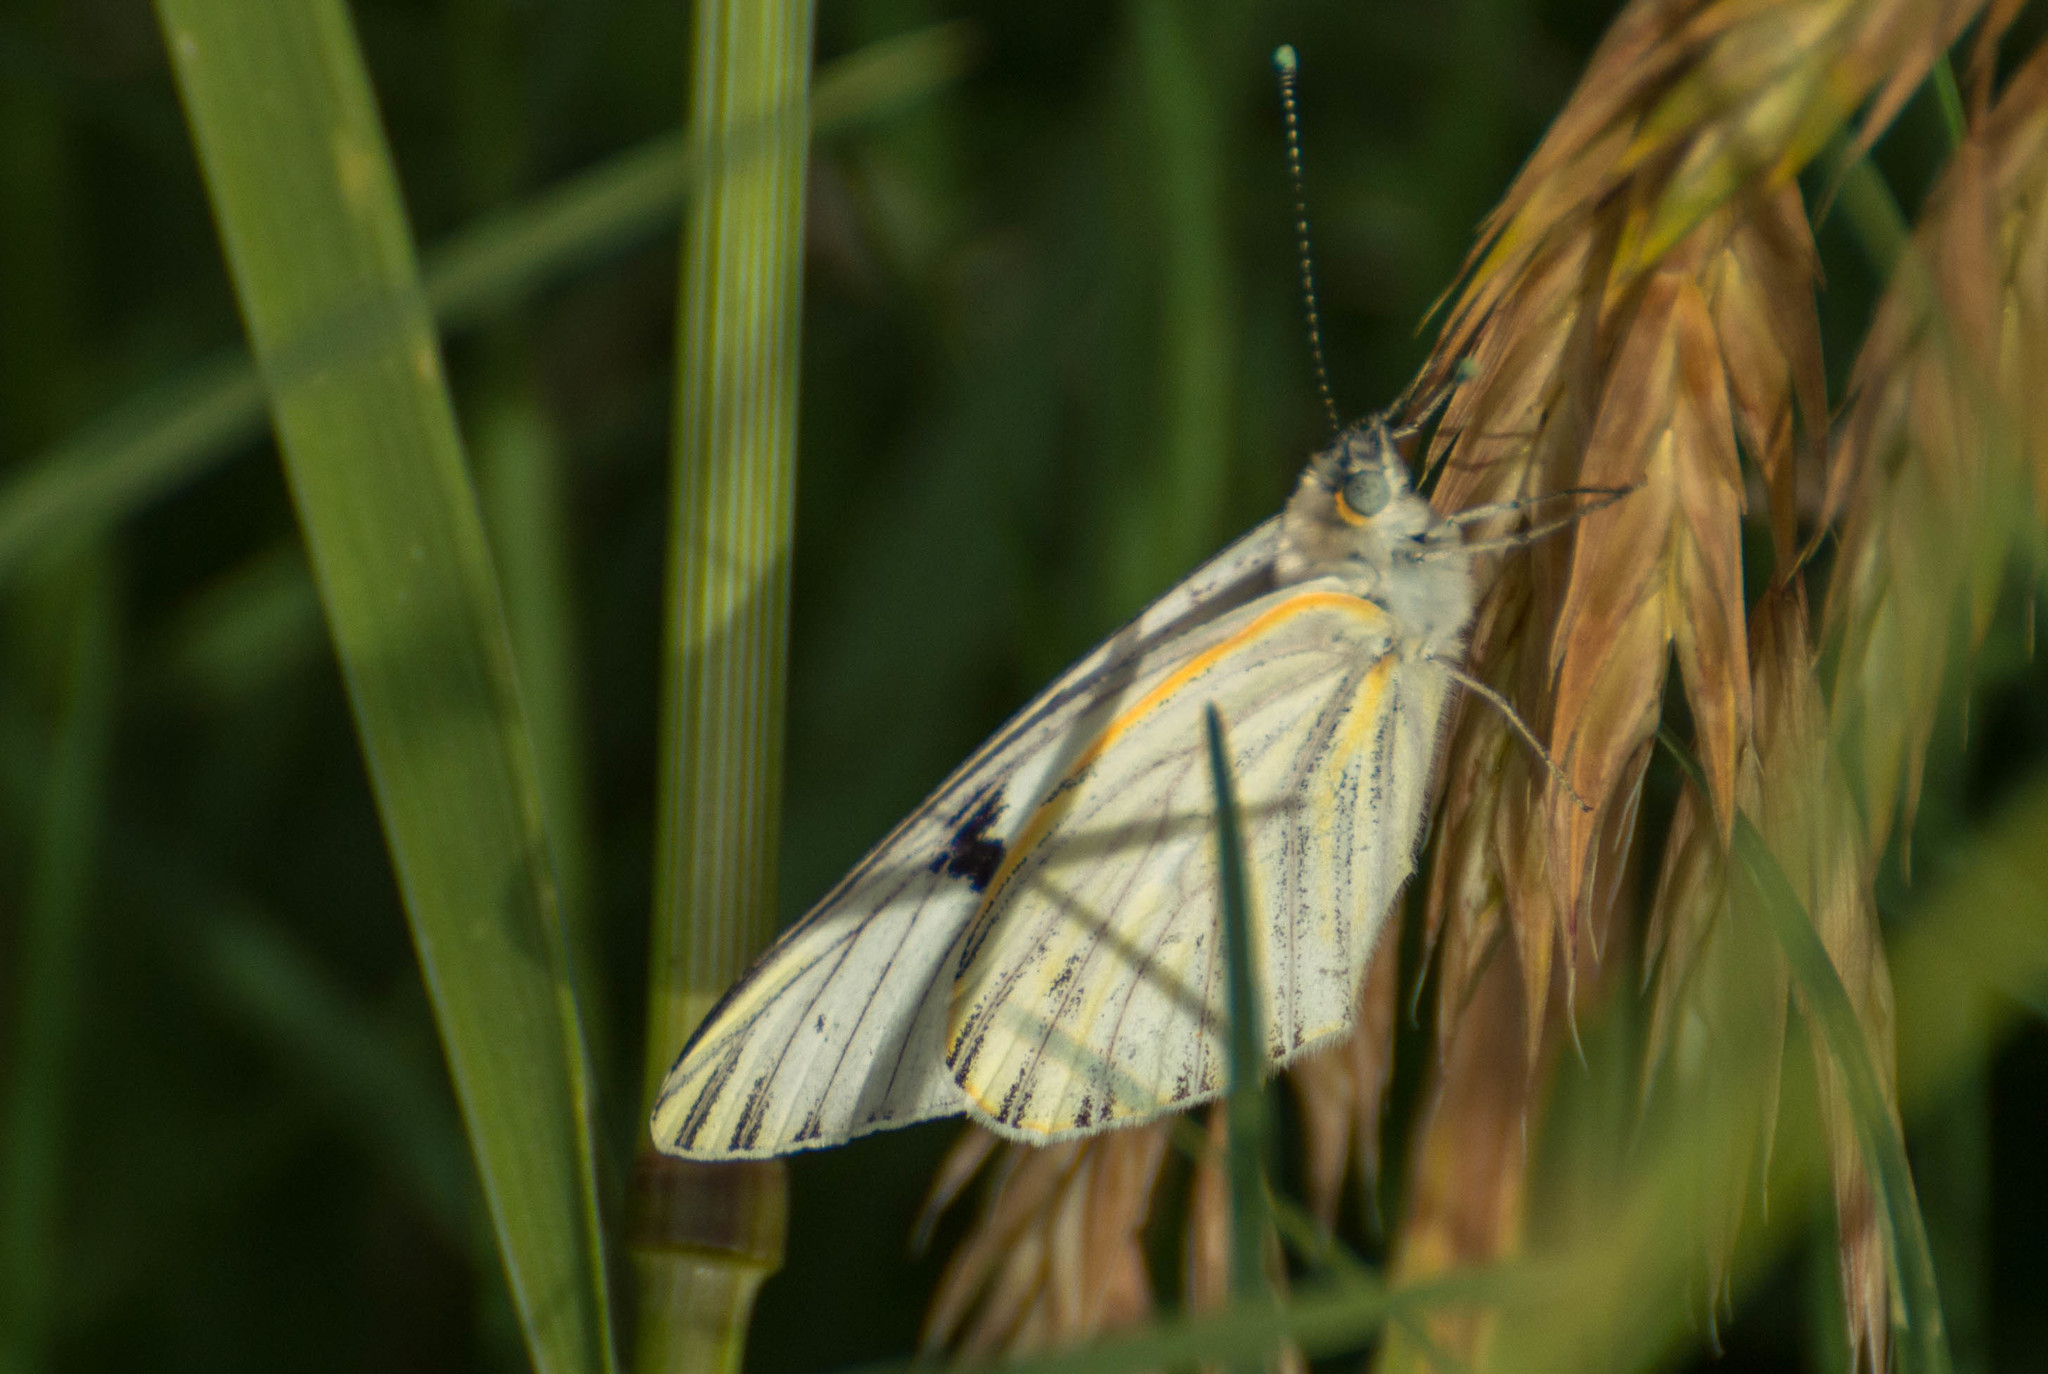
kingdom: Animalia
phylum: Arthropoda
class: Insecta
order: Lepidoptera
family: Pieridae
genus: Tatochila
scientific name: Tatochila mercedis
